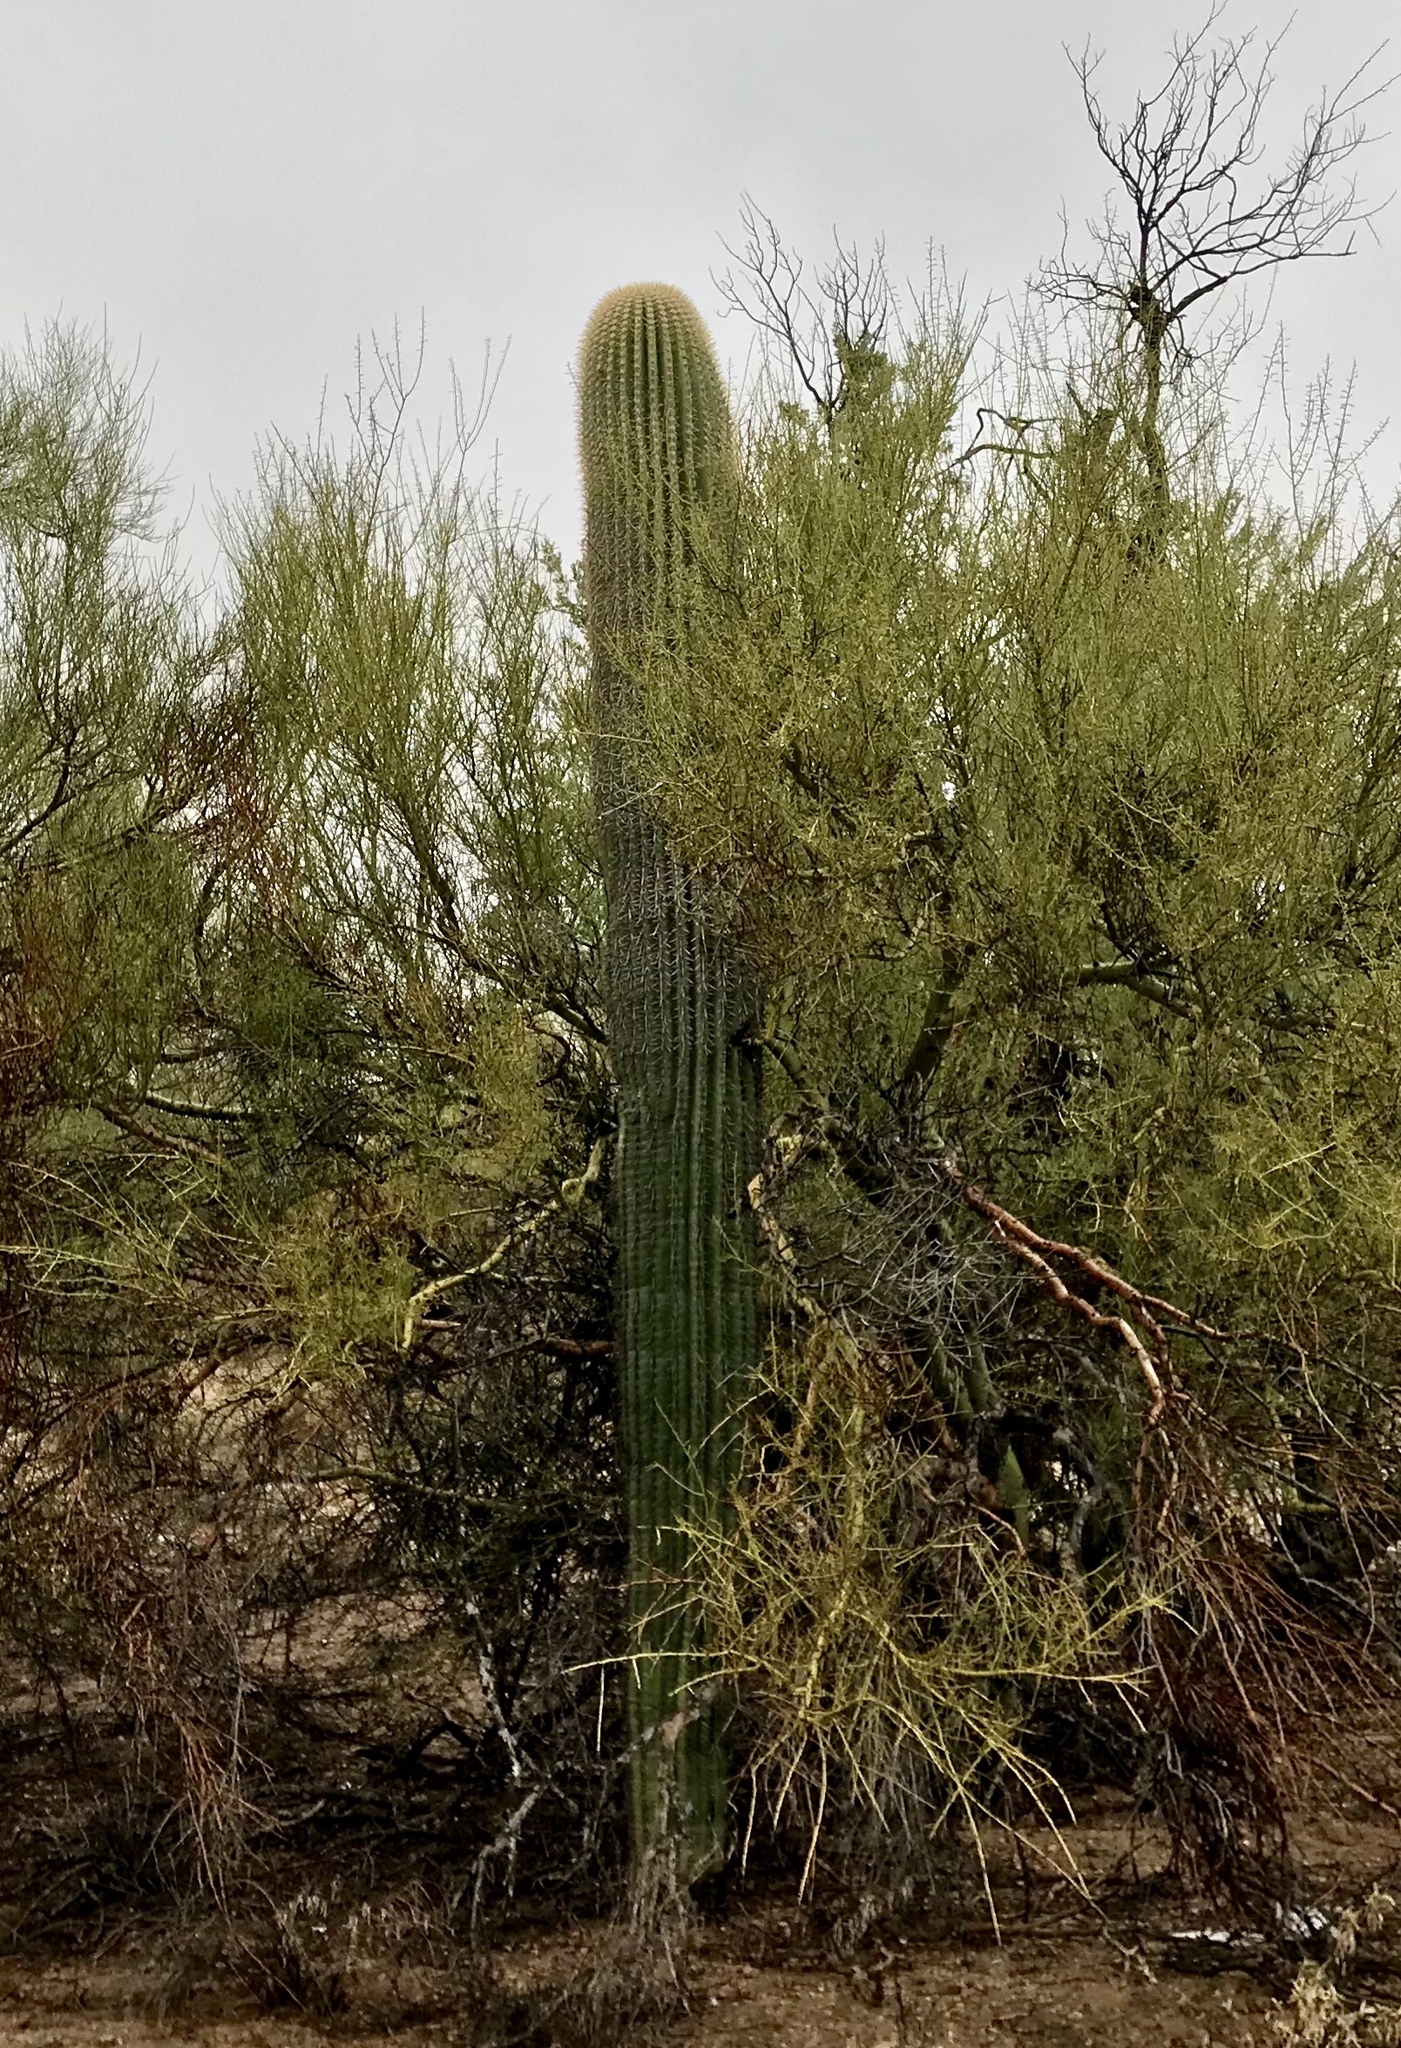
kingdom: Plantae
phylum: Tracheophyta
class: Magnoliopsida
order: Caryophyllales
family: Cactaceae
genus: Carnegiea
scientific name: Carnegiea gigantea
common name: Saguaro
